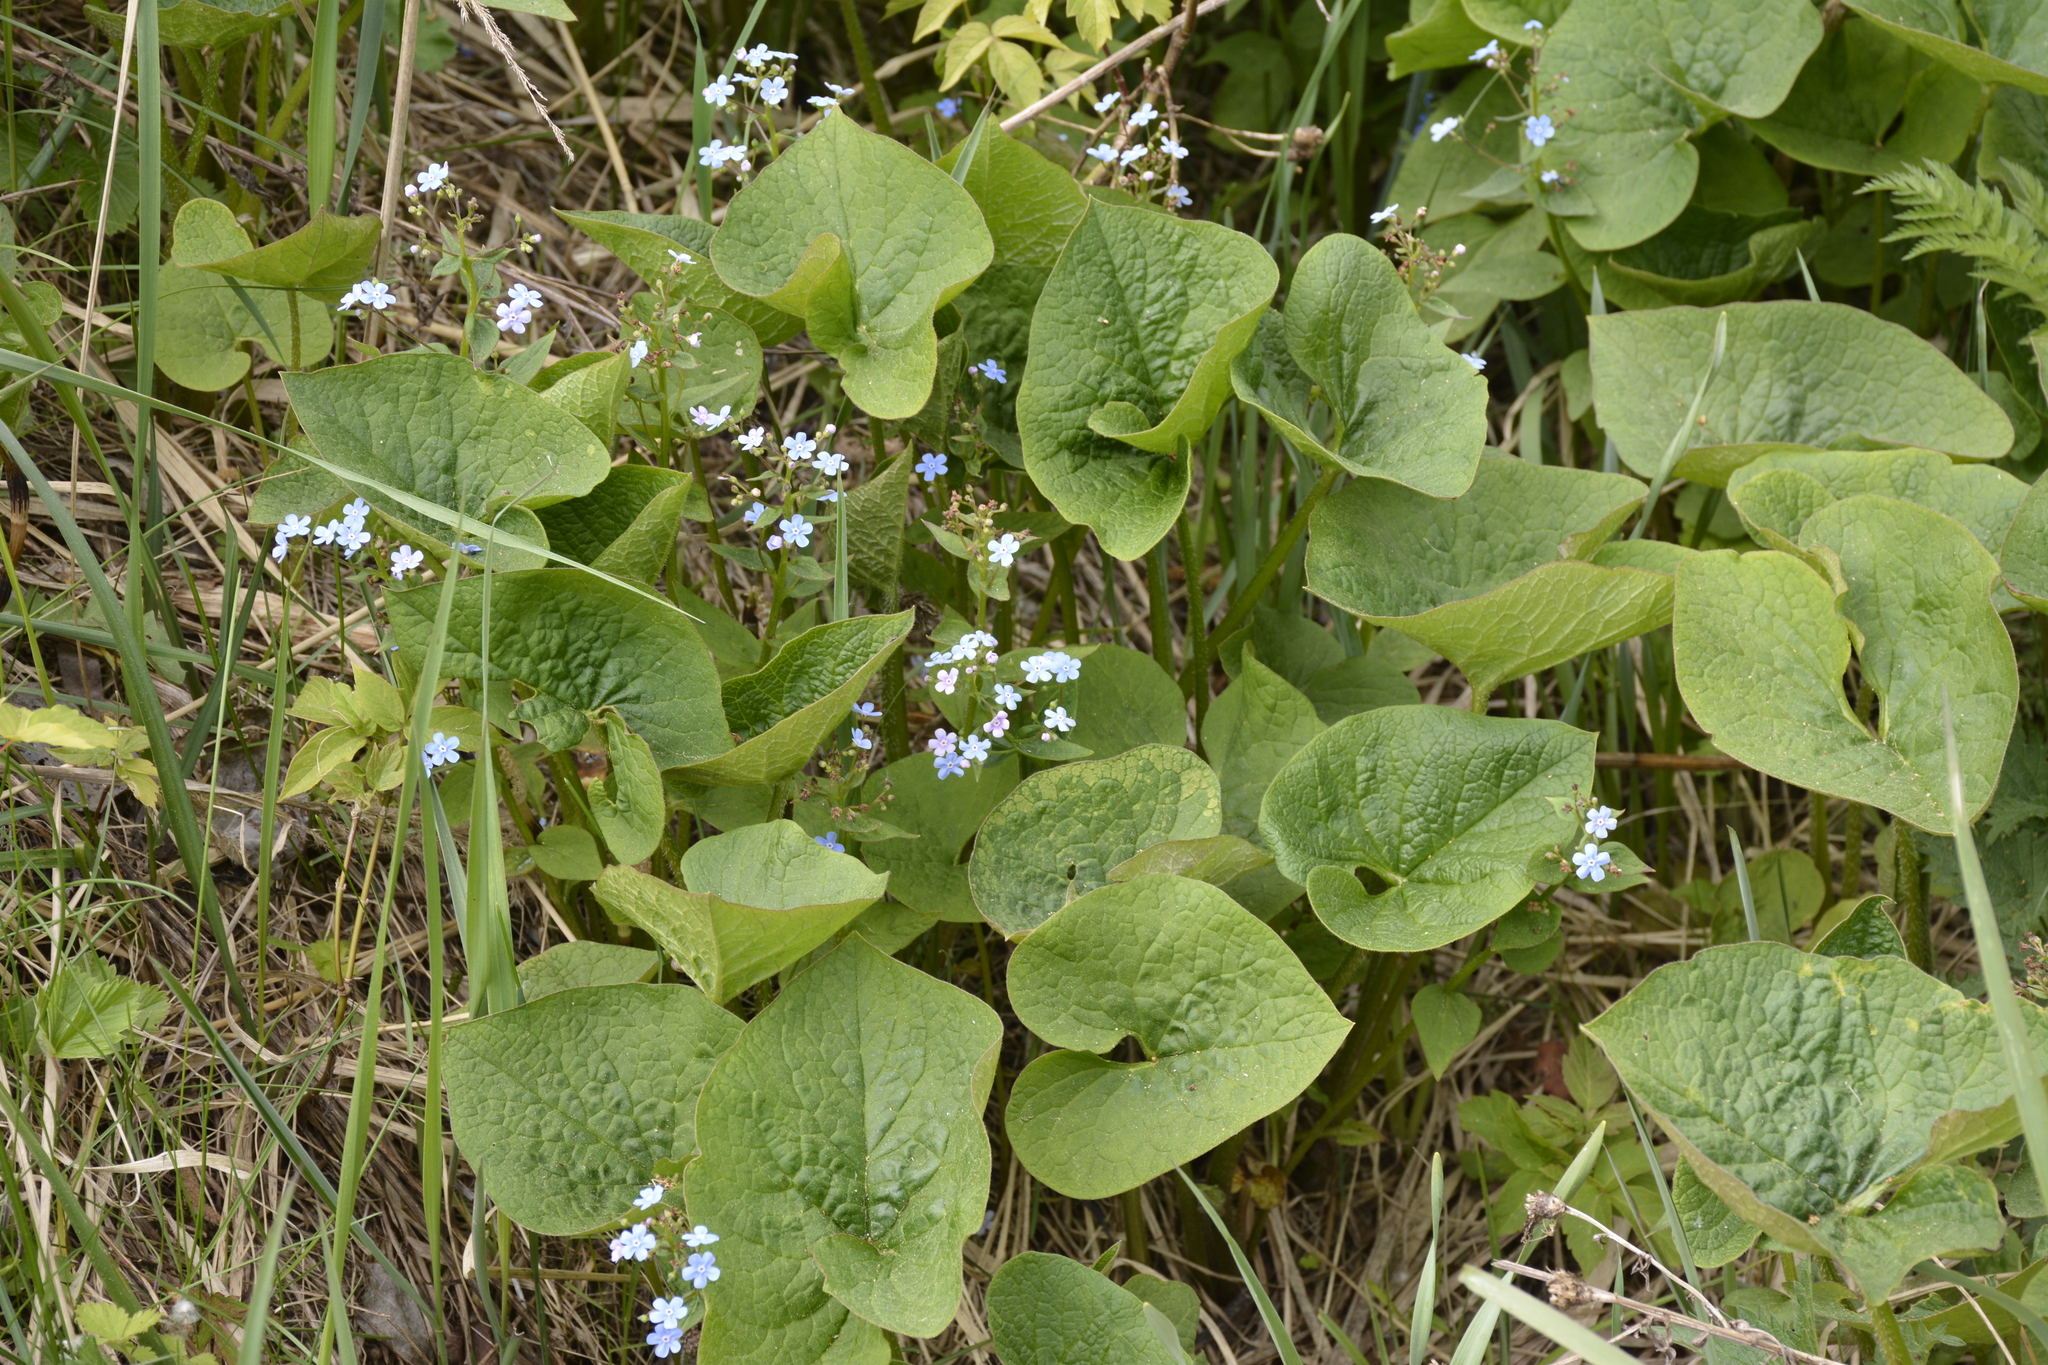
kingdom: Plantae
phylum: Tracheophyta
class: Magnoliopsida
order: Boraginales
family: Boraginaceae
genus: Brunnera
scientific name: Brunnera sibirica
